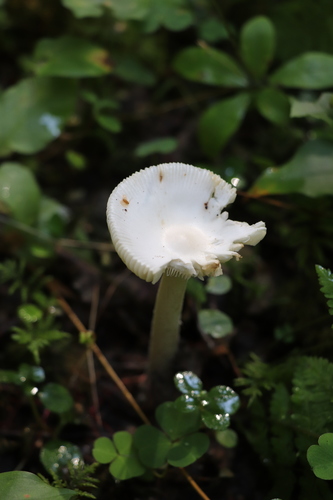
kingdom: Fungi
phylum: Basidiomycota
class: Agaricomycetes
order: Agaricales
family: Amanitaceae
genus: Amanita
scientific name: Amanita
